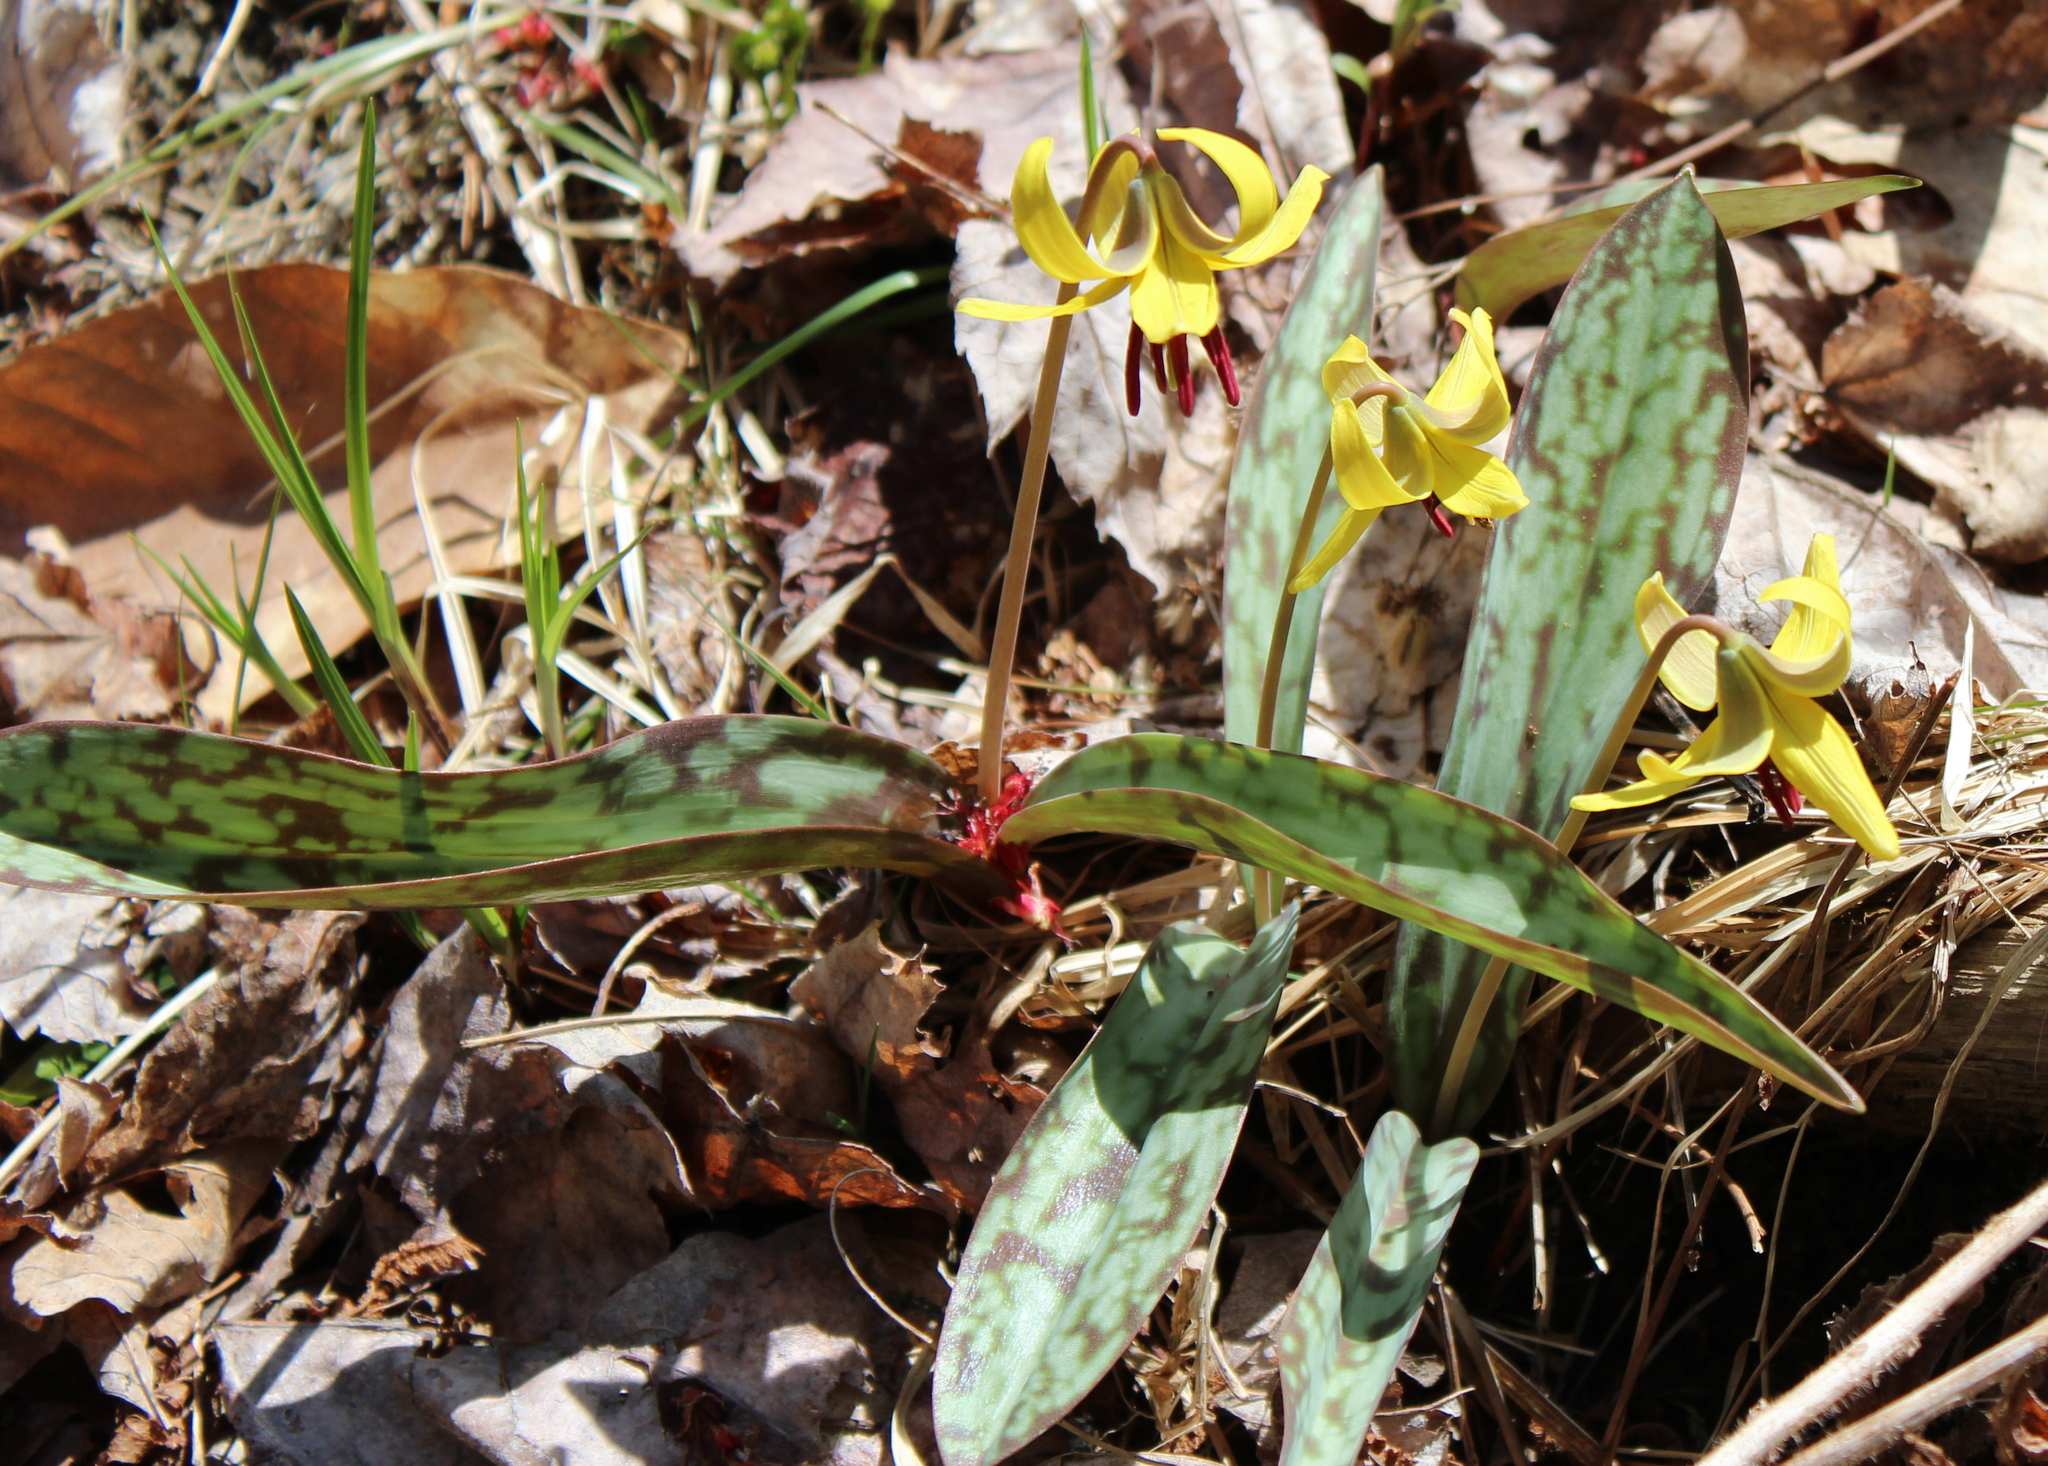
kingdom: Plantae
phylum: Tracheophyta
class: Liliopsida
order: Liliales
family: Liliaceae
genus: Erythronium
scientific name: Erythronium americanum
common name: Yellow adder's-tongue
